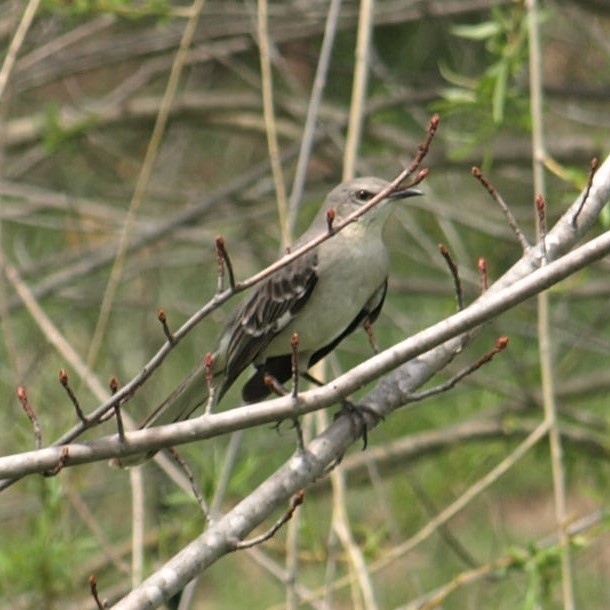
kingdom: Animalia
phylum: Chordata
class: Aves
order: Passeriformes
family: Mimidae
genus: Mimus
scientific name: Mimus polyglottos
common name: Northern mockingbird
